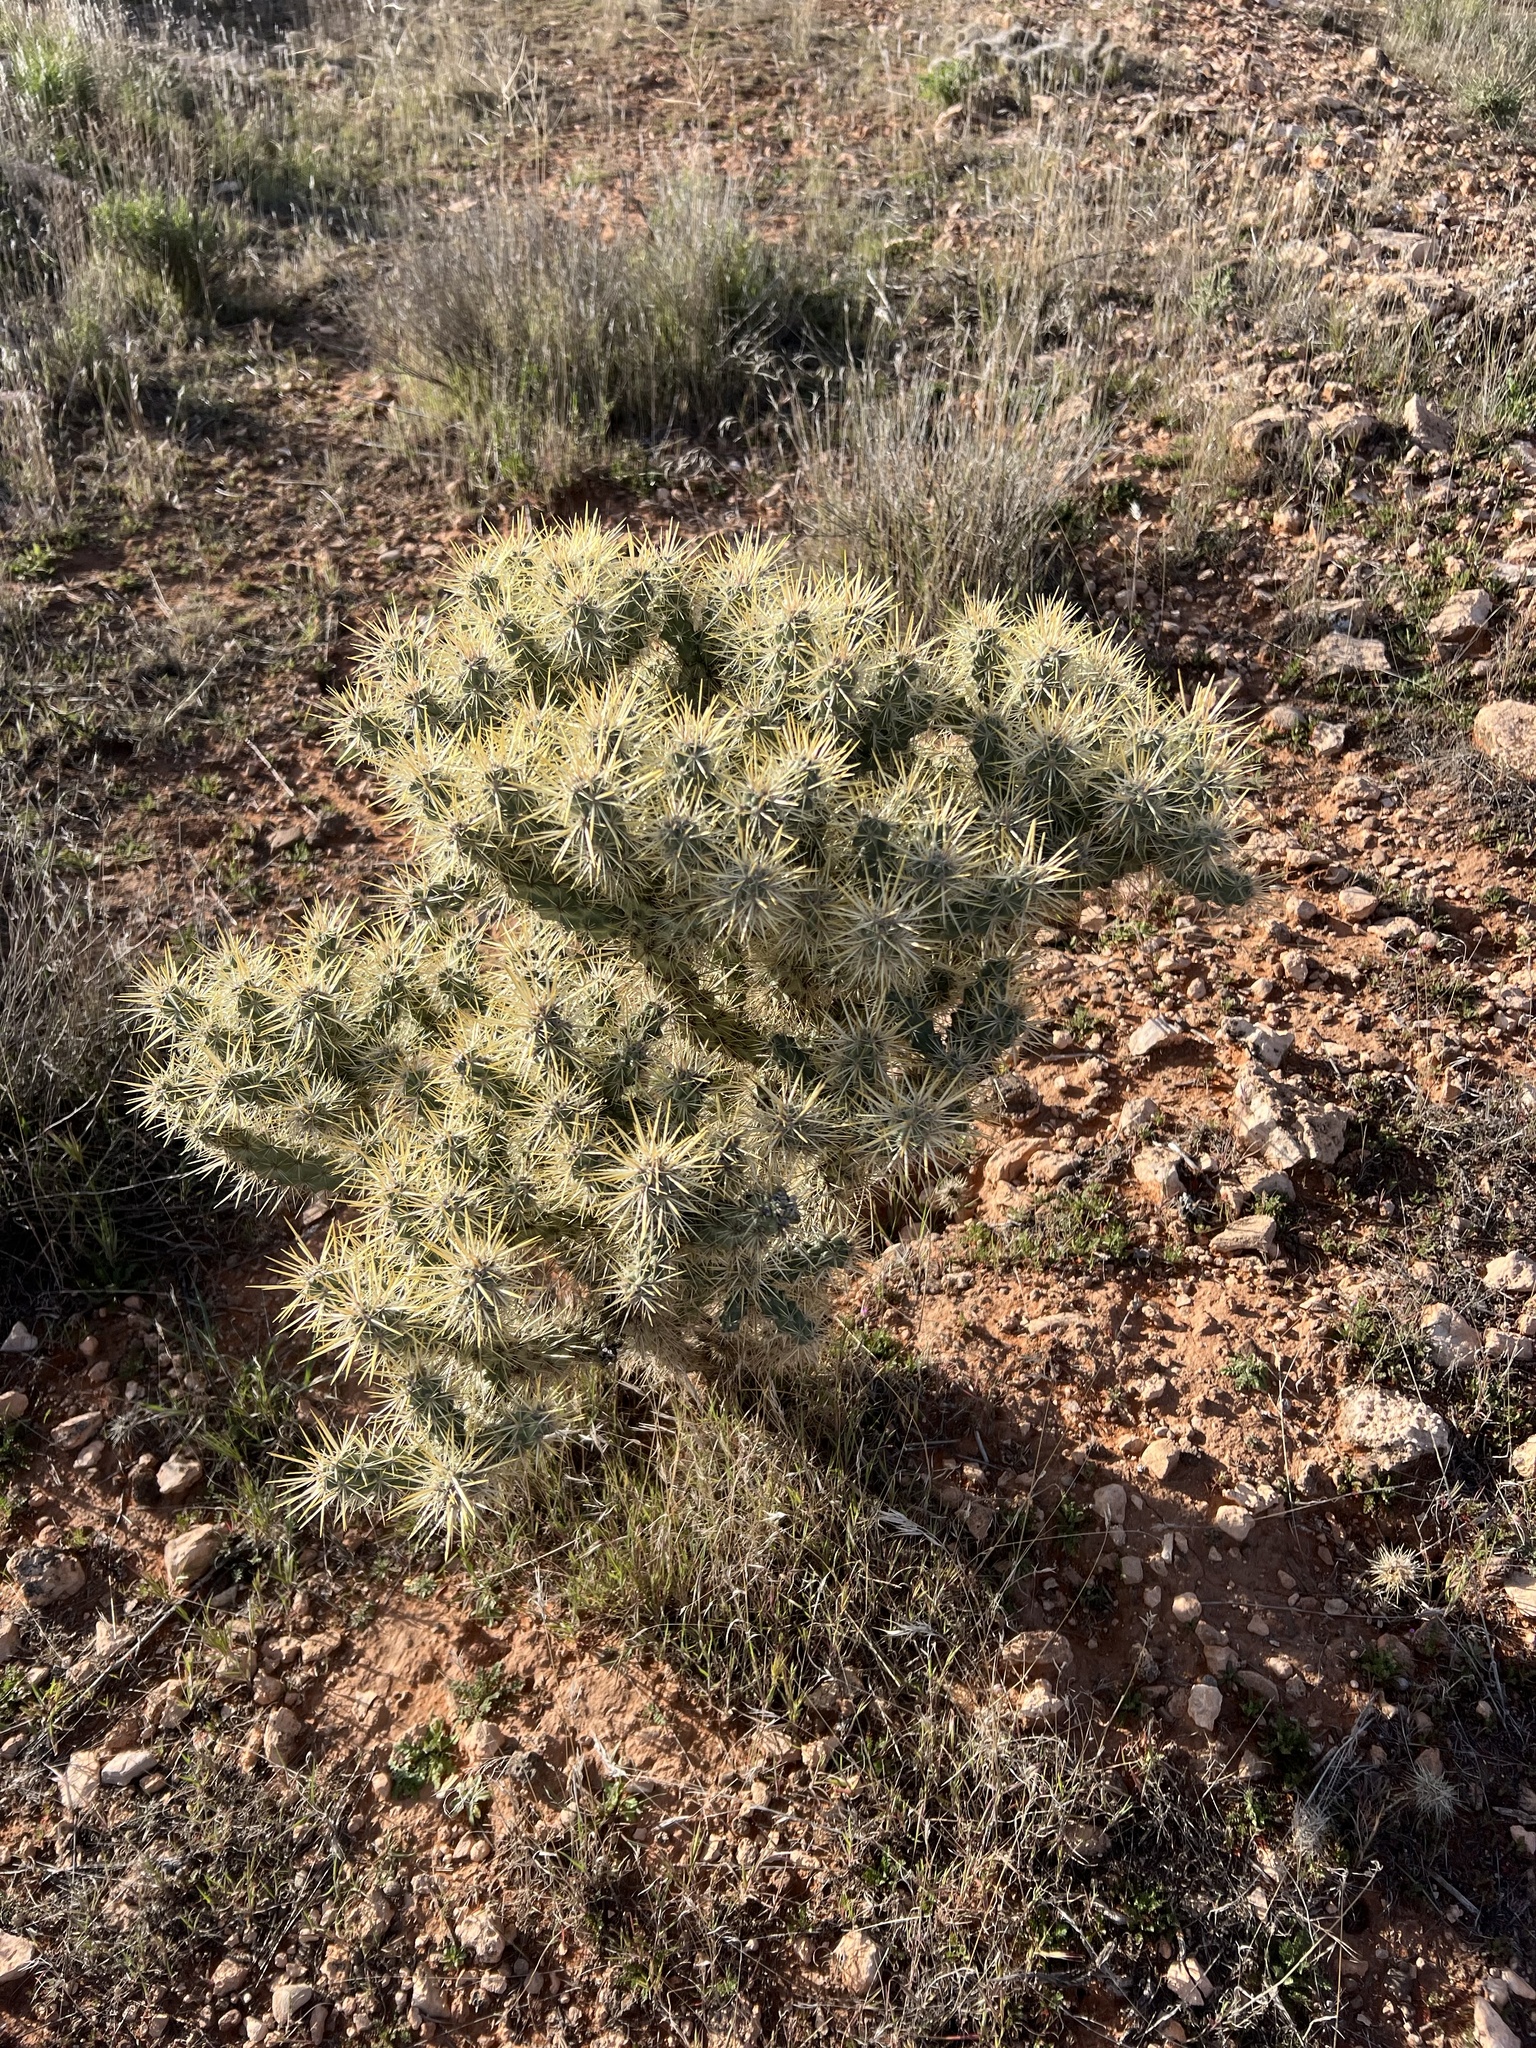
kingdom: Plantae
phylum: Tracheophyta
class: Magnoliopsida
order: Caryophyllales
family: Cactaceae
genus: Cylindropuntia
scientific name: Cylindropuntia echinocarpa
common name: Ground cholla
